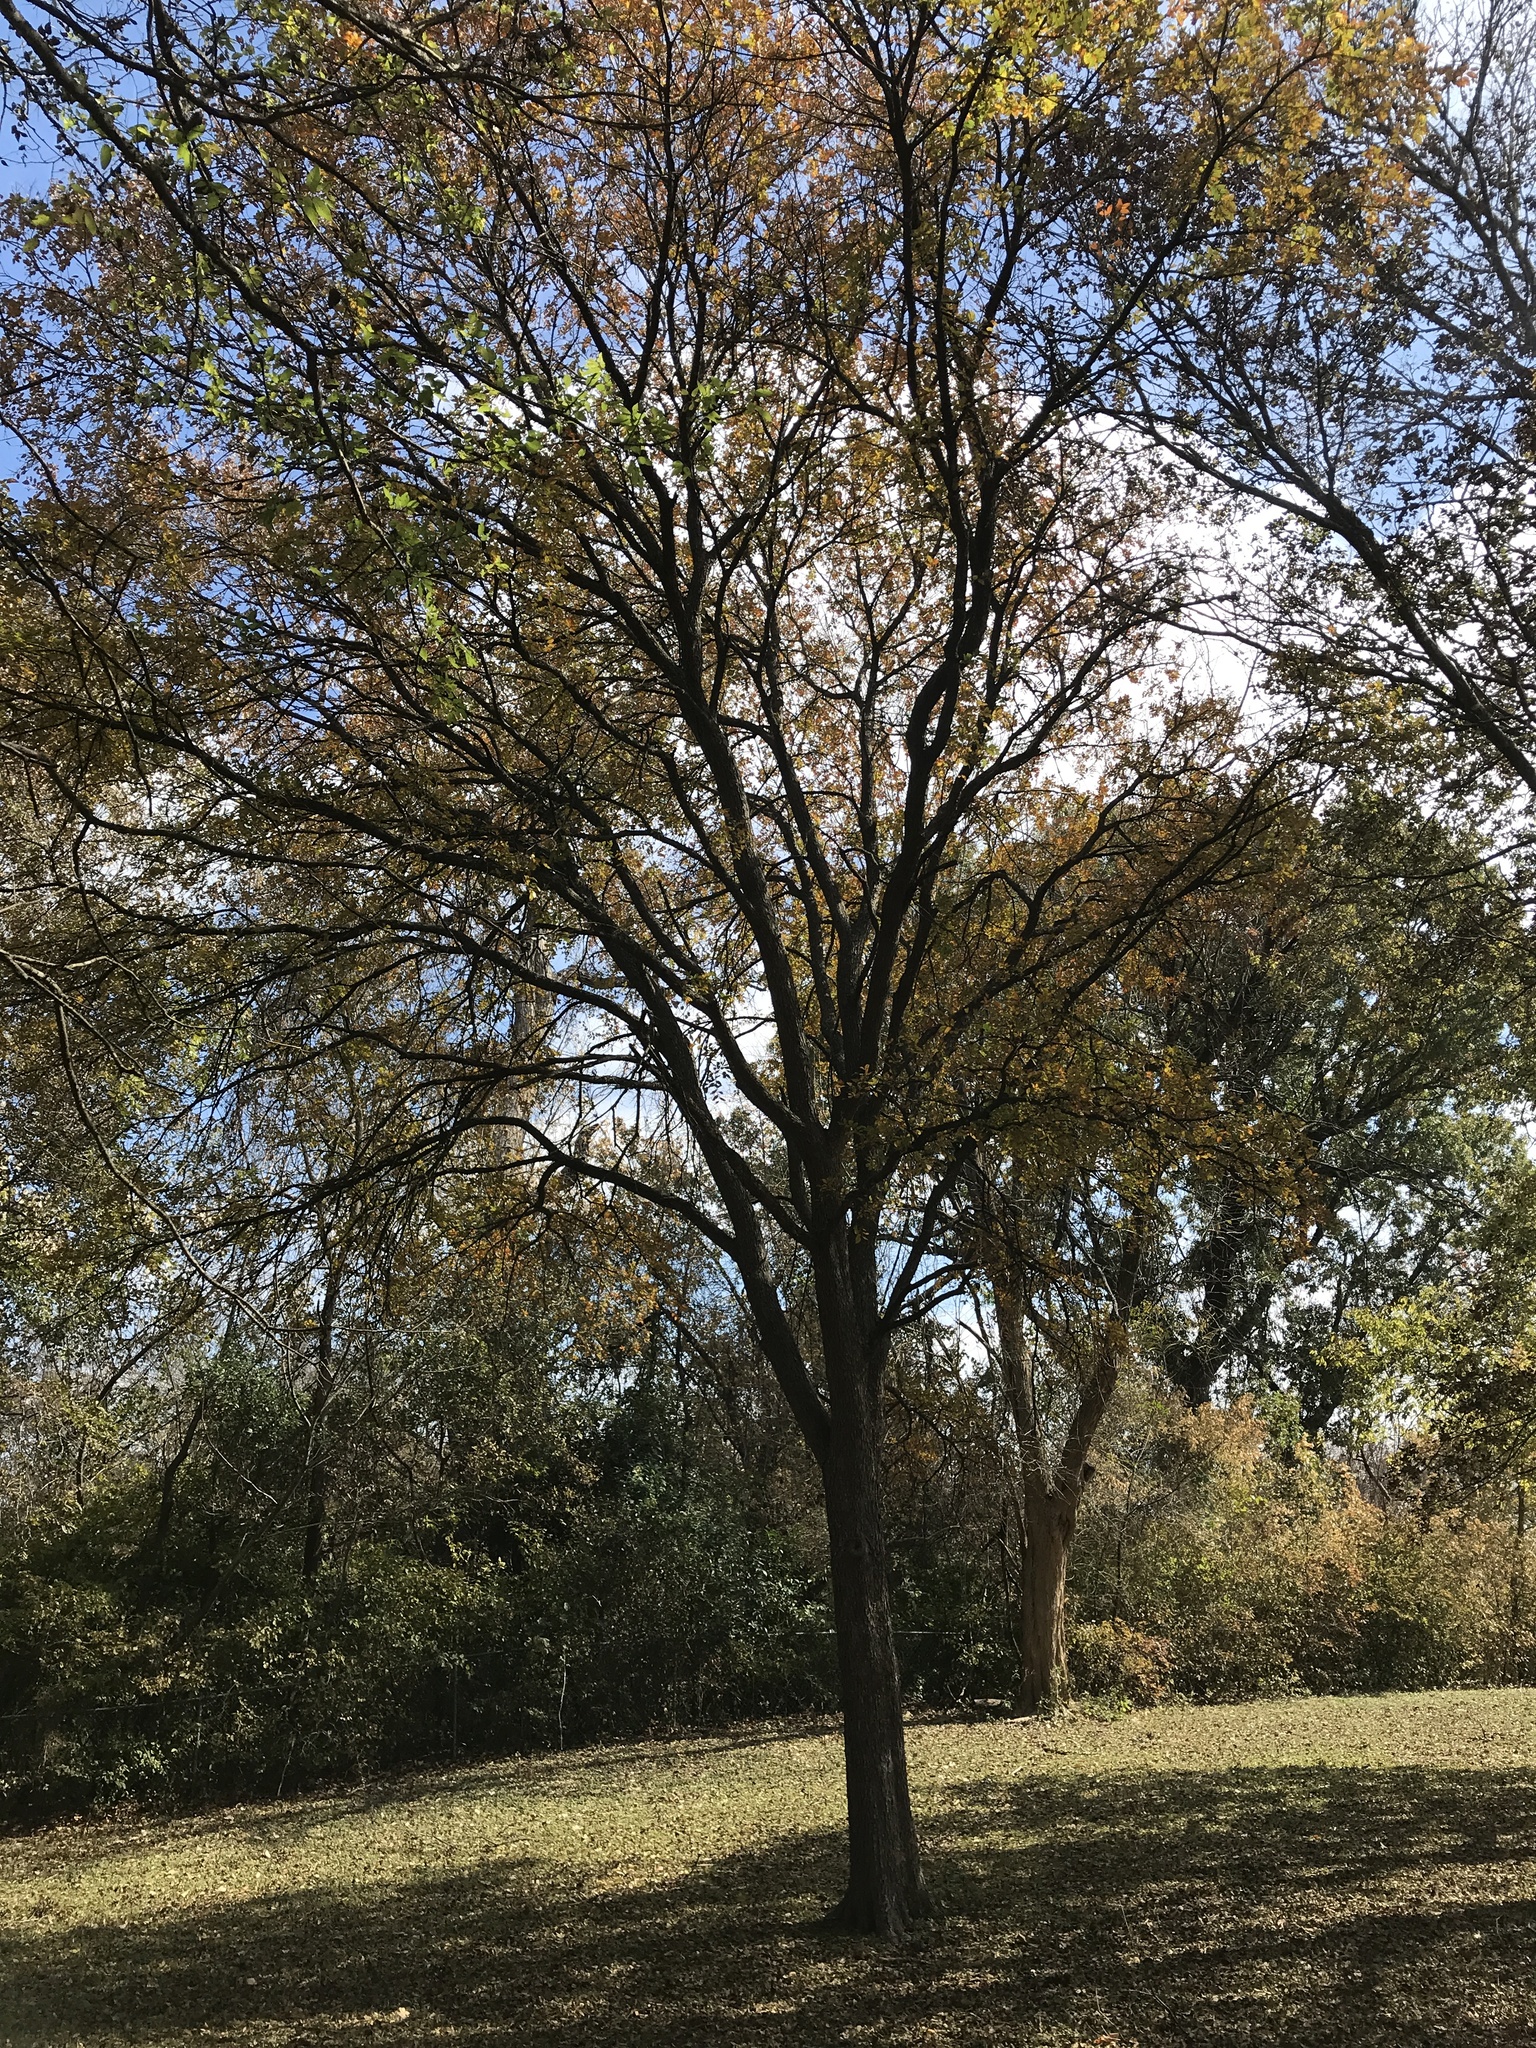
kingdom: Plantae
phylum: Tracheophyta
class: Magnoliopsida
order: Rosales
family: Ulmaceae
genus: Ulmus
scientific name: Ulmus crassifolia
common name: Basket elm
